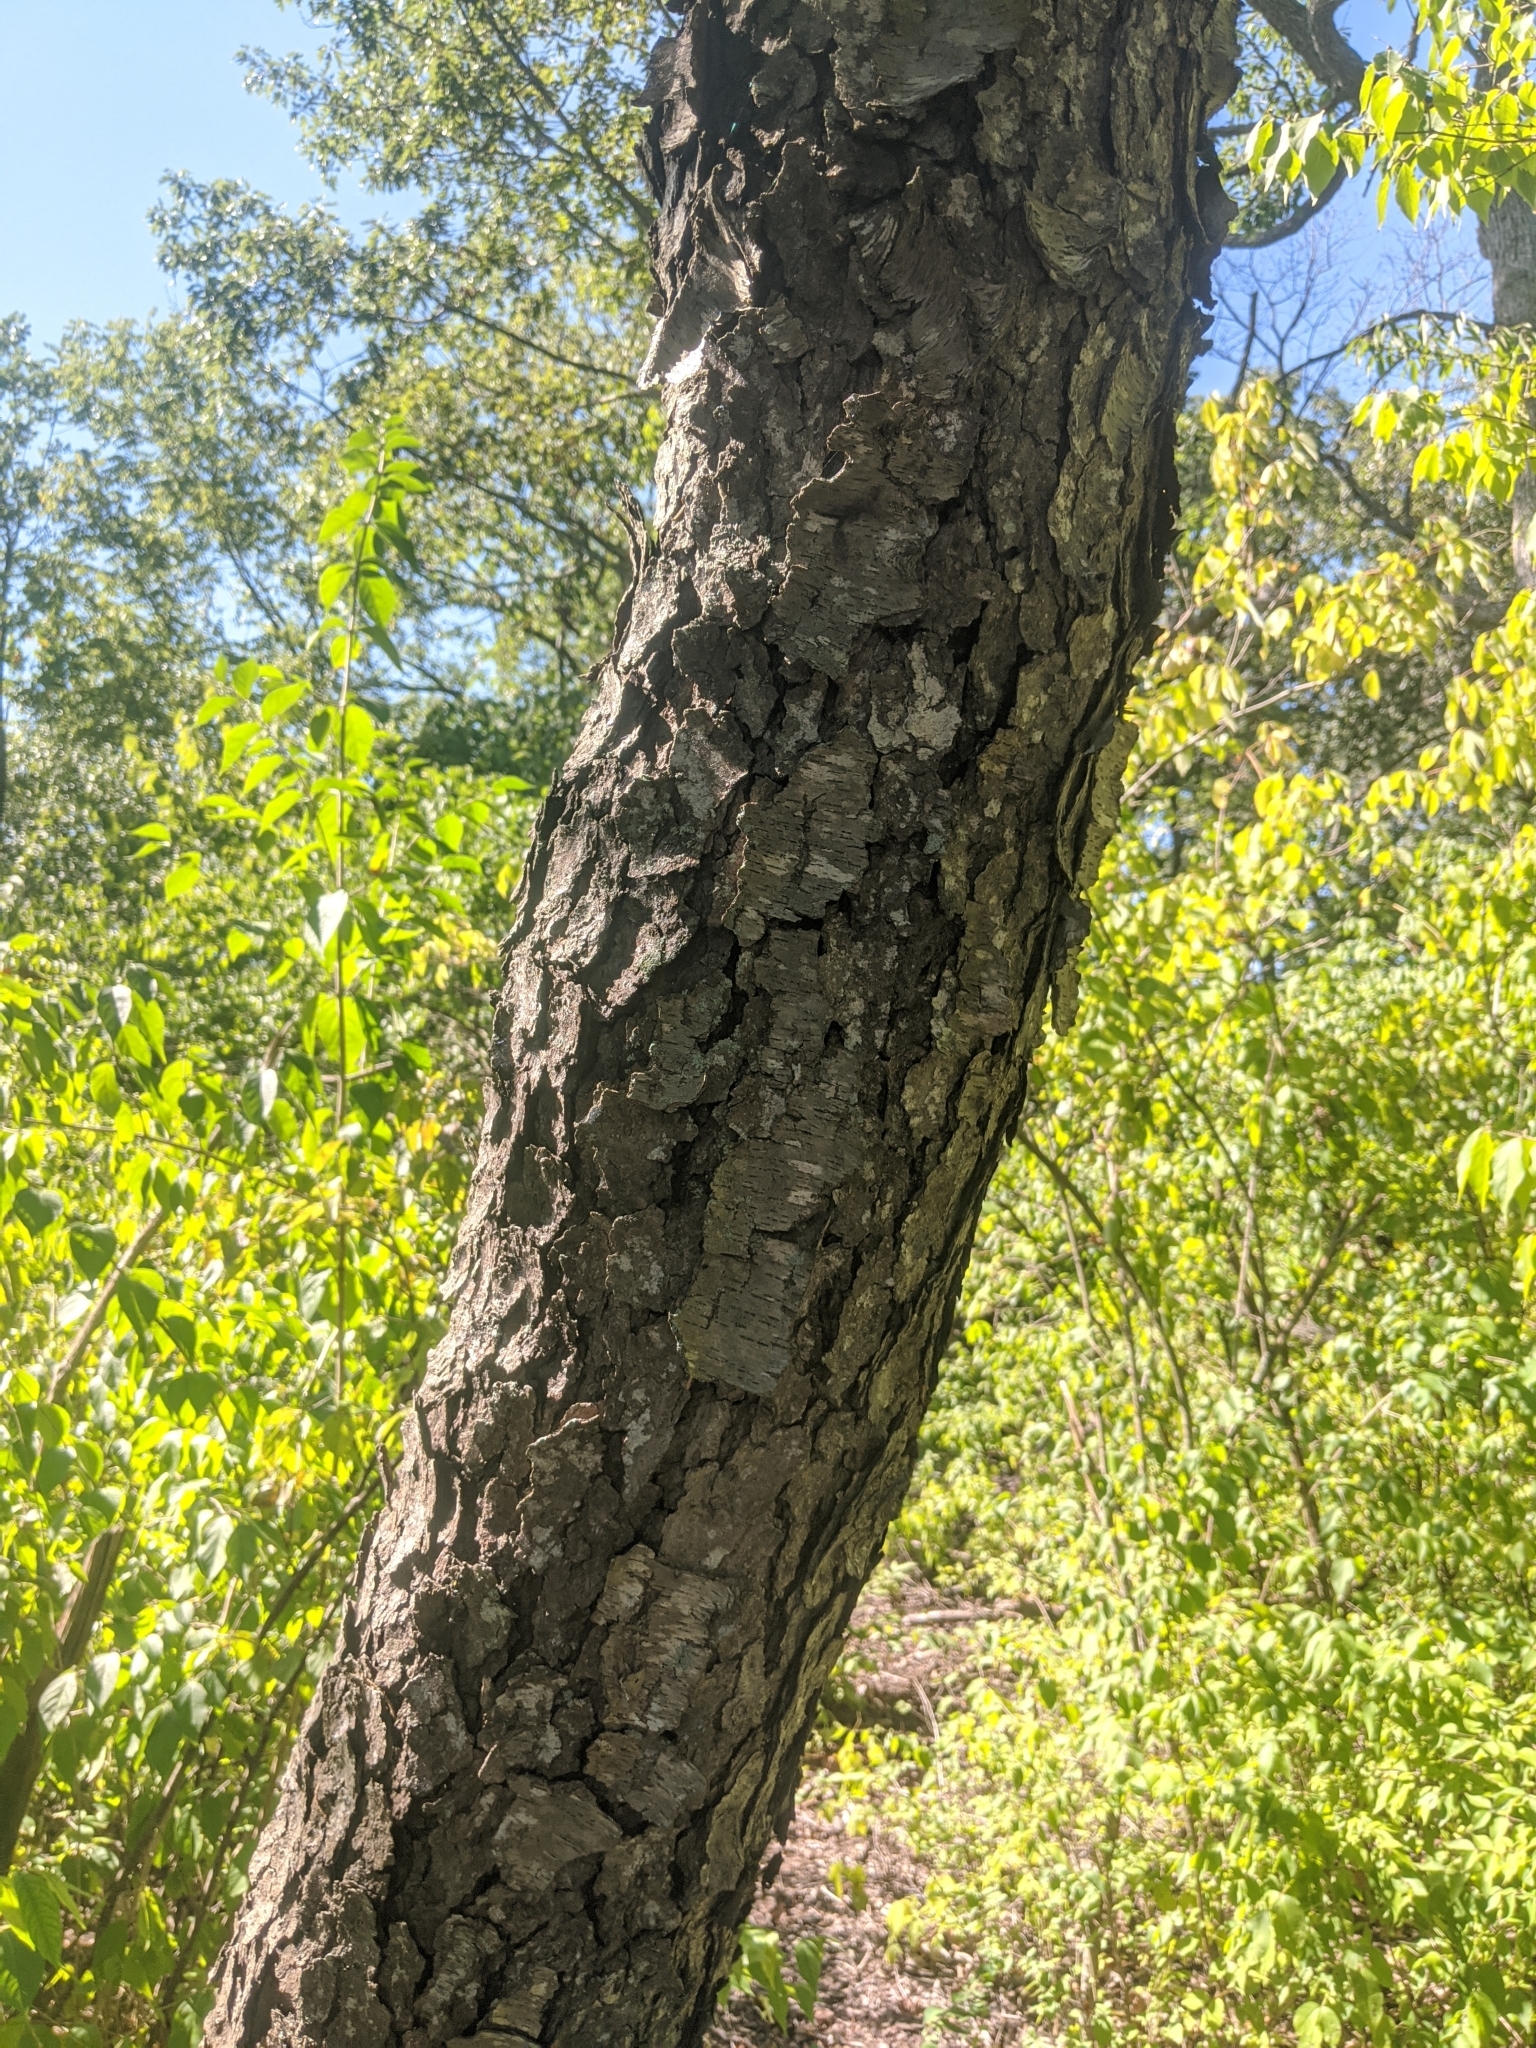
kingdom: Plantae
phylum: Tracheophyta
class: Magnoliopsida
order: Rosales
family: Rosaceae
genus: Prunus
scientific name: Prunus serotina
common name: Black cherry
